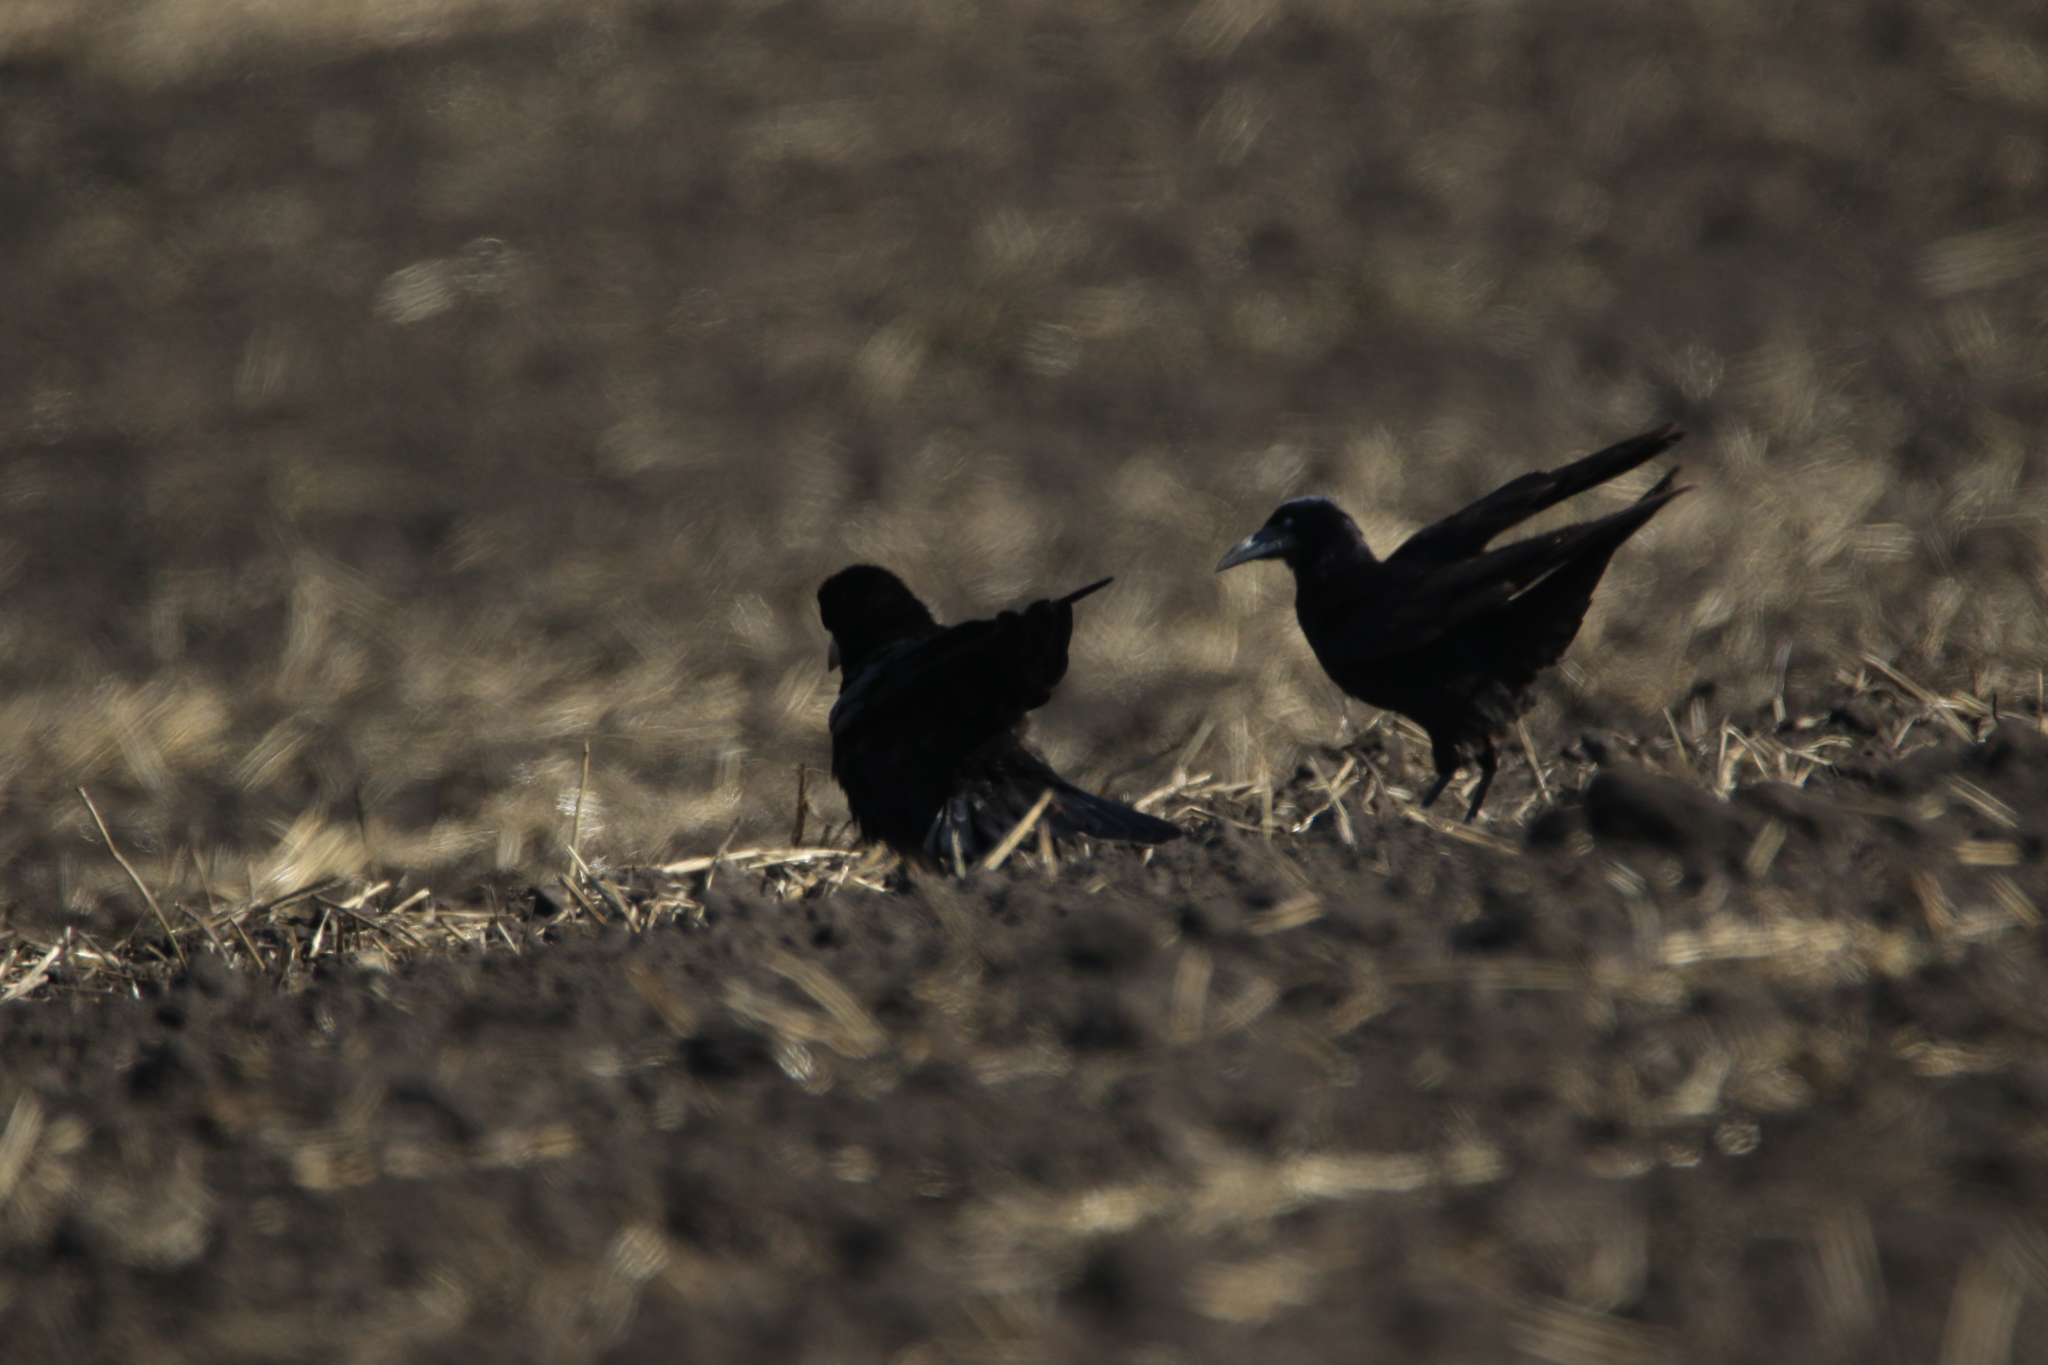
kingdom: Animalia
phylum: Chordata
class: Aves
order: Passeriformes
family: Corvidae
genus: Corvus
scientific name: Corvus frugilegus
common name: Rook
